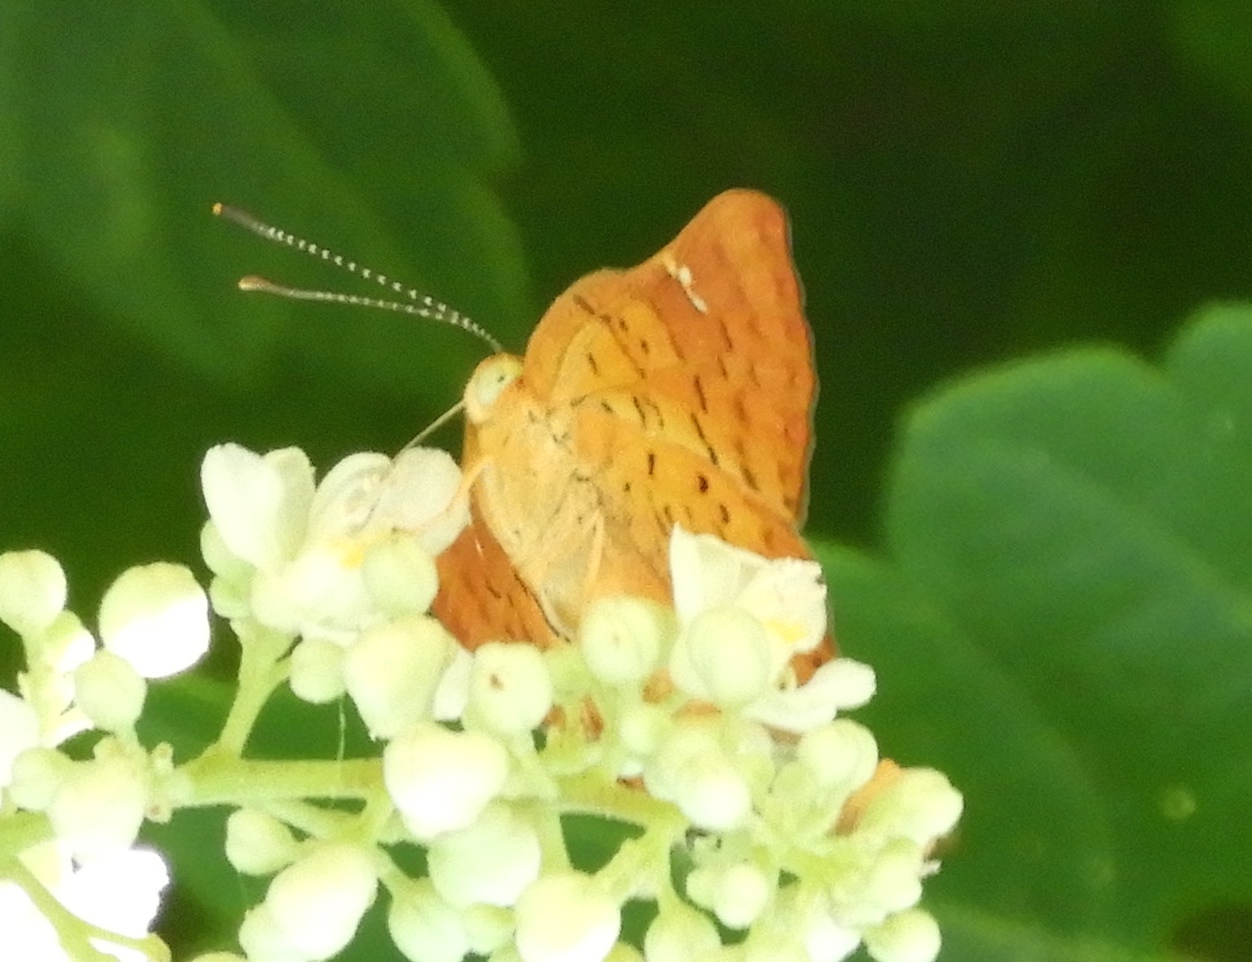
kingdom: Animalia
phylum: Arthropoda
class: Insecta
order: Lepidoptera
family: Riodinidae
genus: Curvie
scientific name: Curvie emesia
